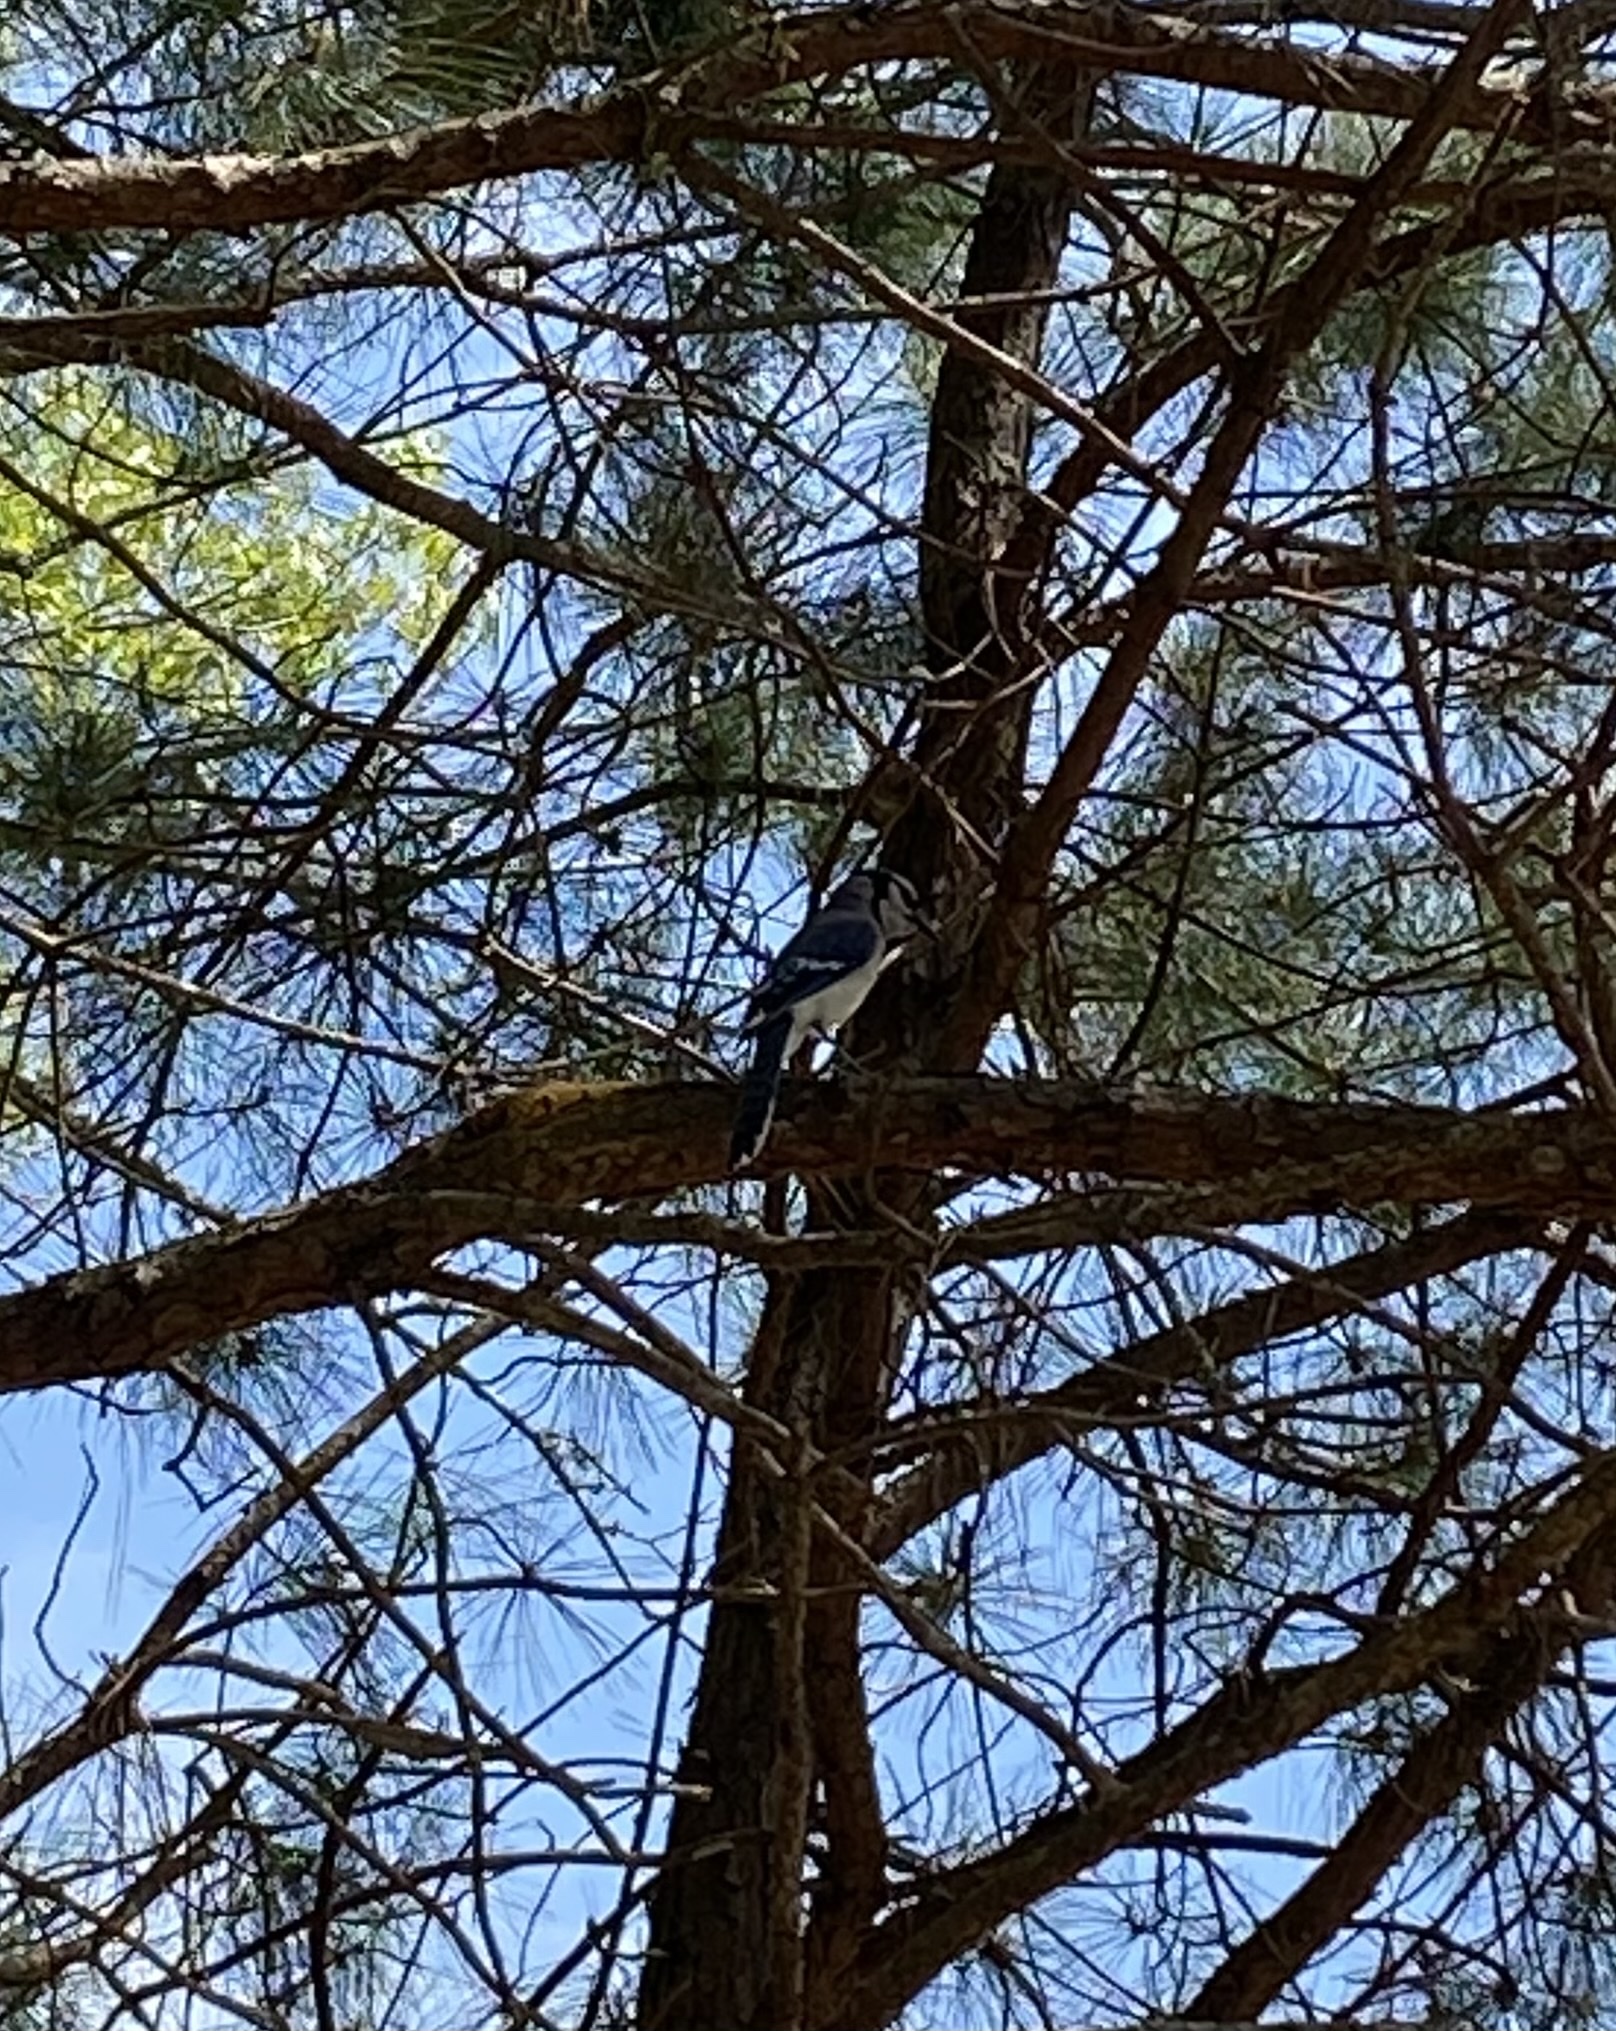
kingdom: Animalia
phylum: Chordata
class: Aves
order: Passeriformes
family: Corvidae
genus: Cyanocitta
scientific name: Cyanocitta cristata
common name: Blue jay
